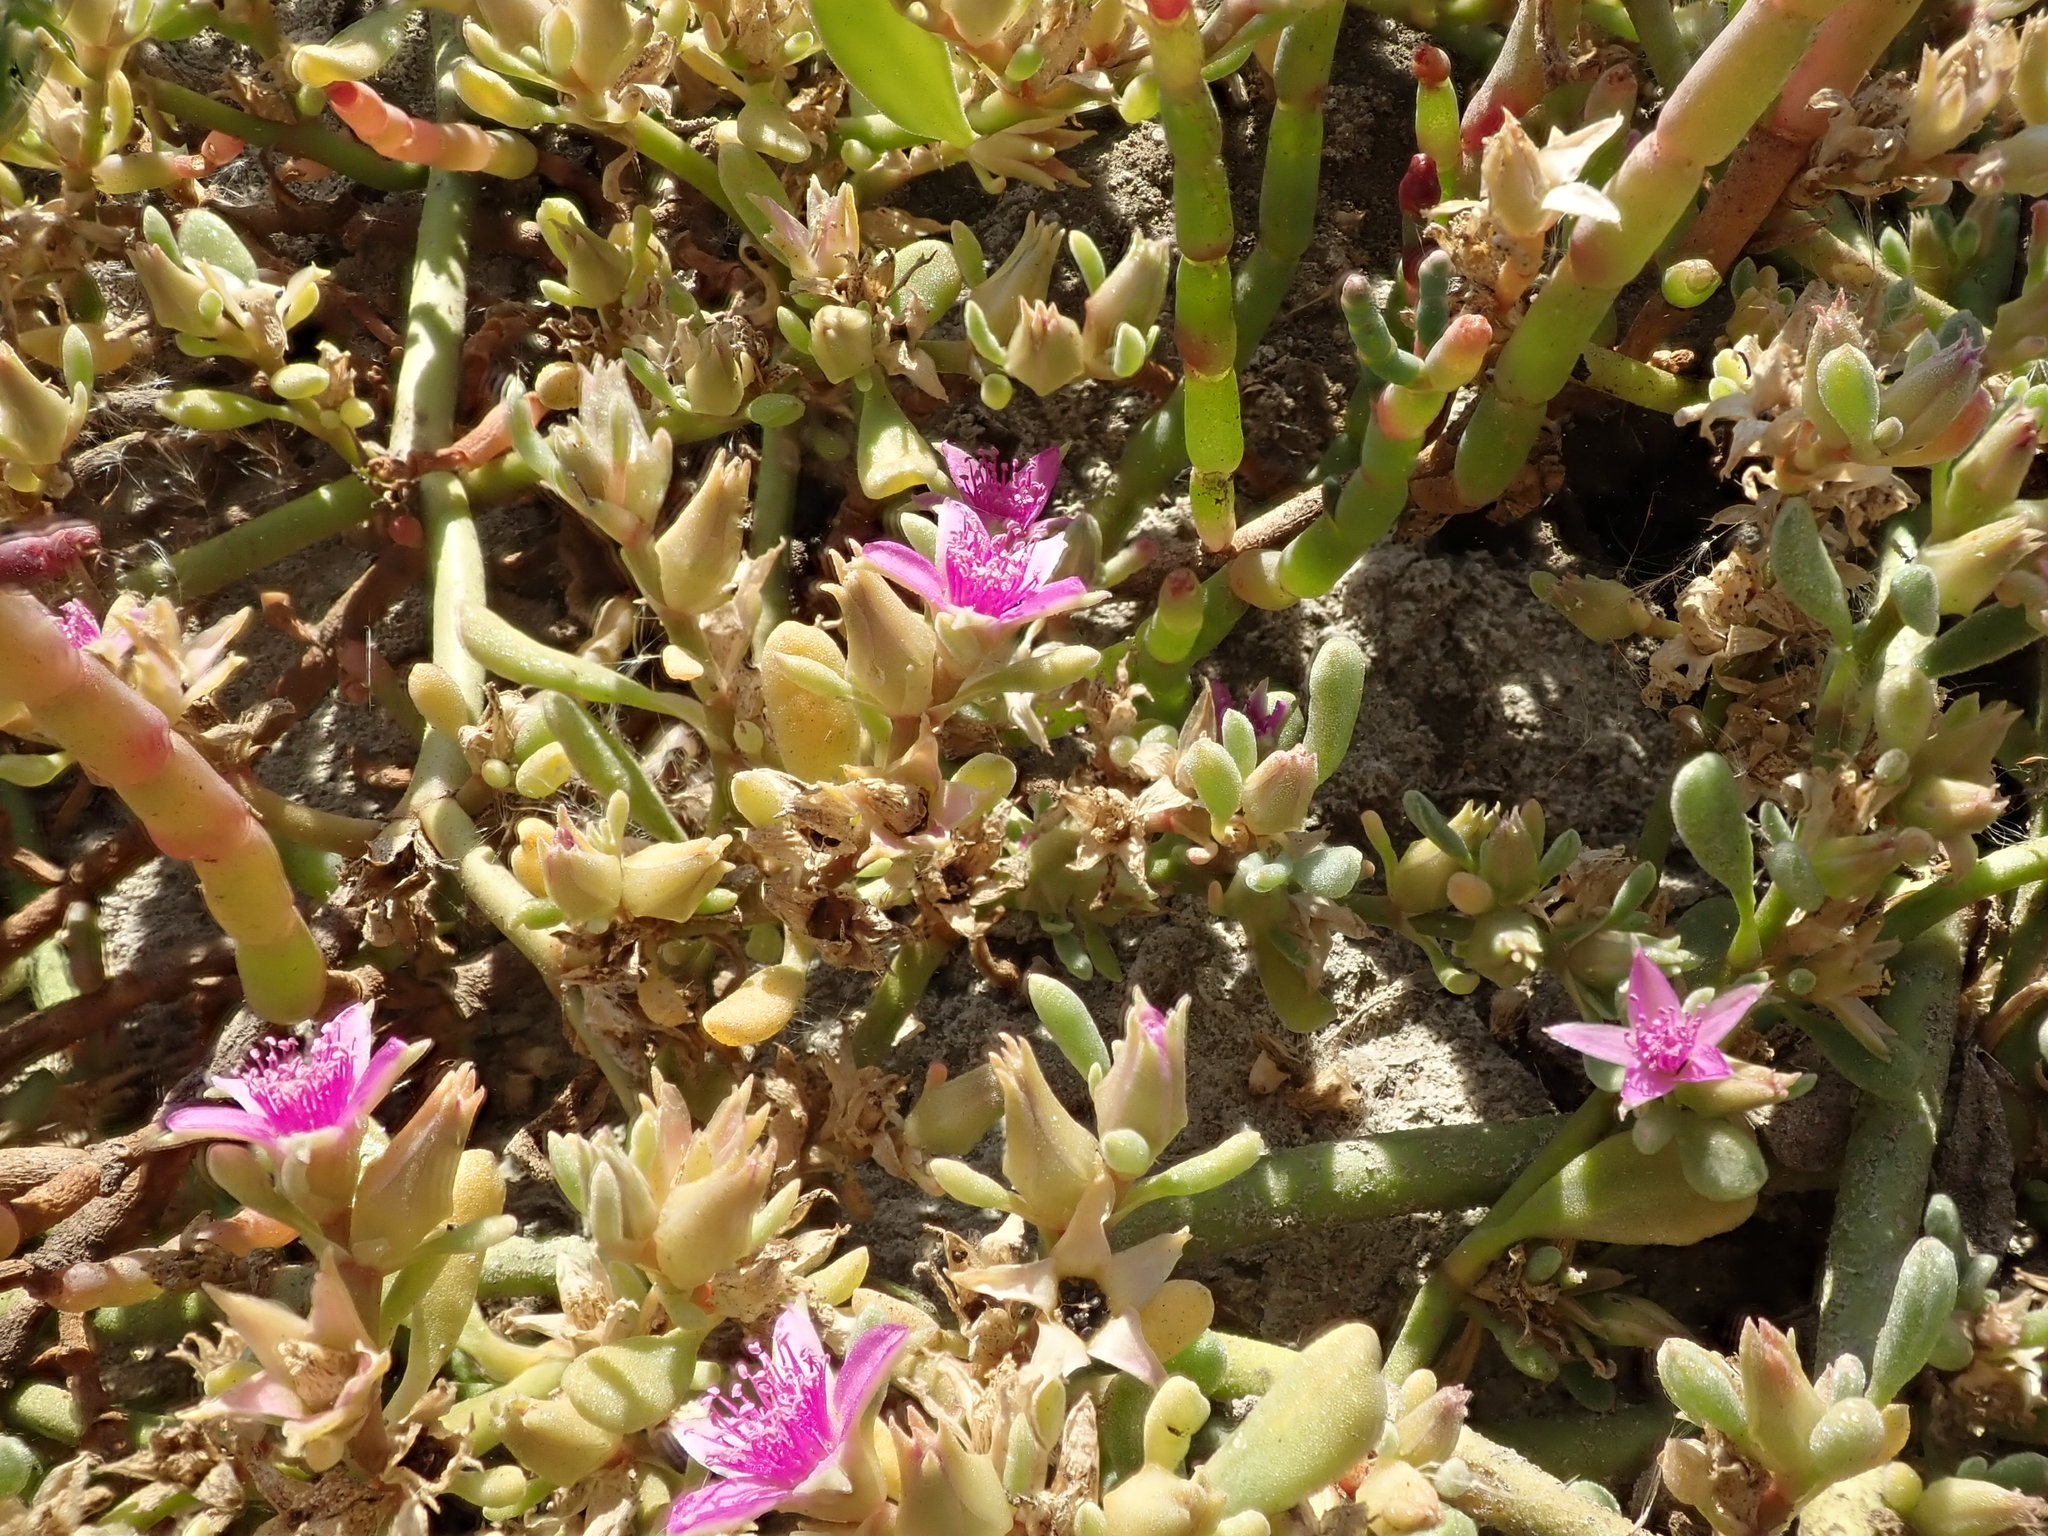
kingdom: Plantae
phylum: Tracheophyta
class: Magnoliopsida
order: Caryophyllales
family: Aizoaceae
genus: Sesuvium
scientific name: Sesuvium revolutifolium
